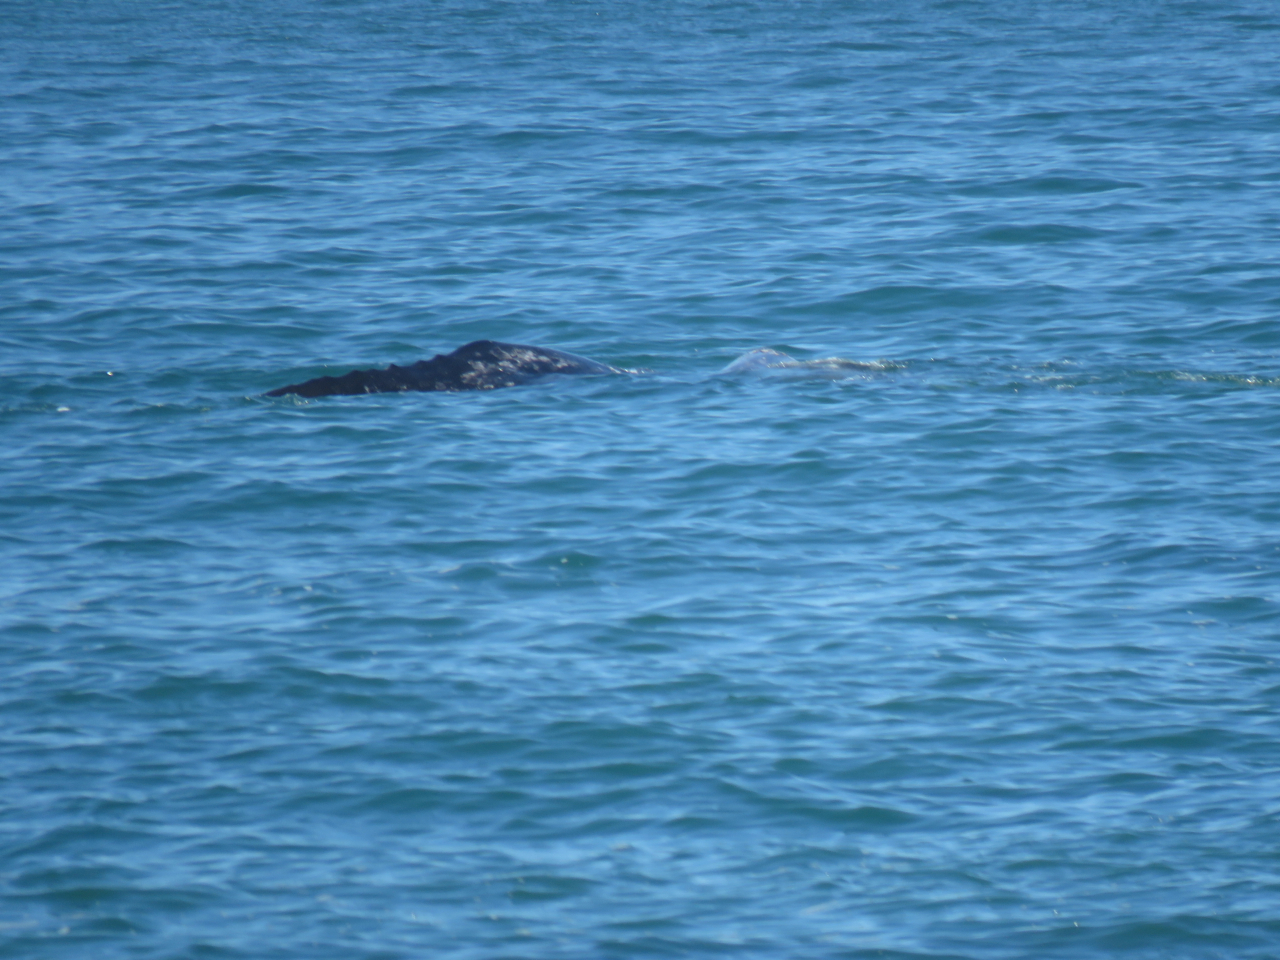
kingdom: Animalia
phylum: Chordata
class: Mammalia
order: Cetacea
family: Eschrichtiidae
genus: Eschrichtius
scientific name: Eschrichtius robustus
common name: Gray whale
